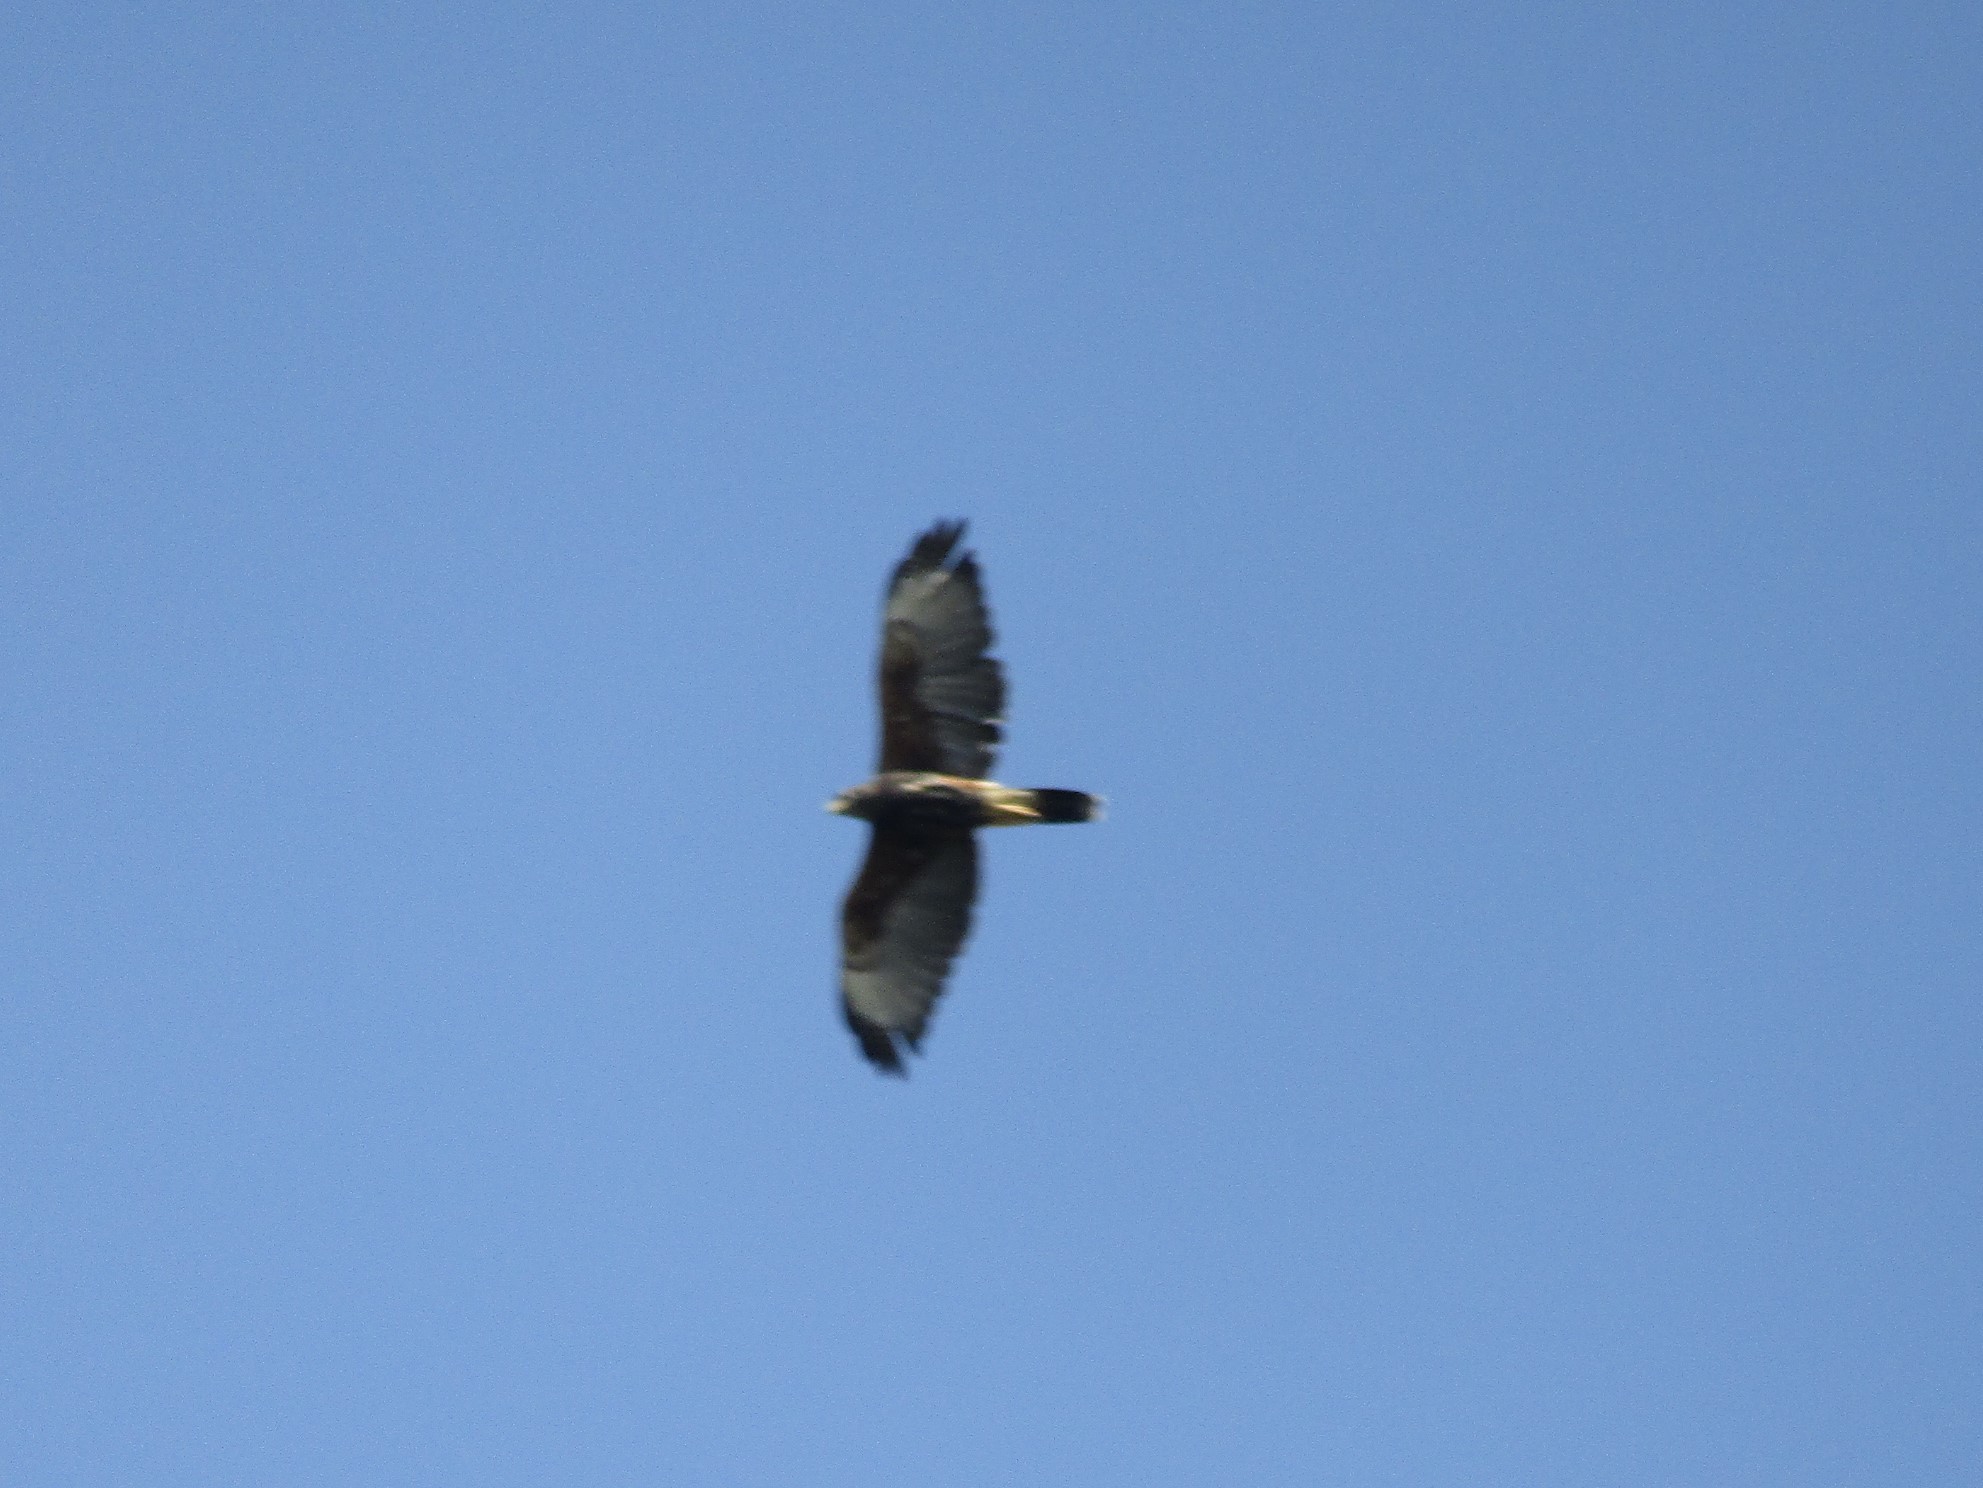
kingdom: Animalia
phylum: Chordata
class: Aves
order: Accipitriformes
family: Accipitridae
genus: Parabuteo
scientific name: Parabuteo unicinctus
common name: Harris's hawk
